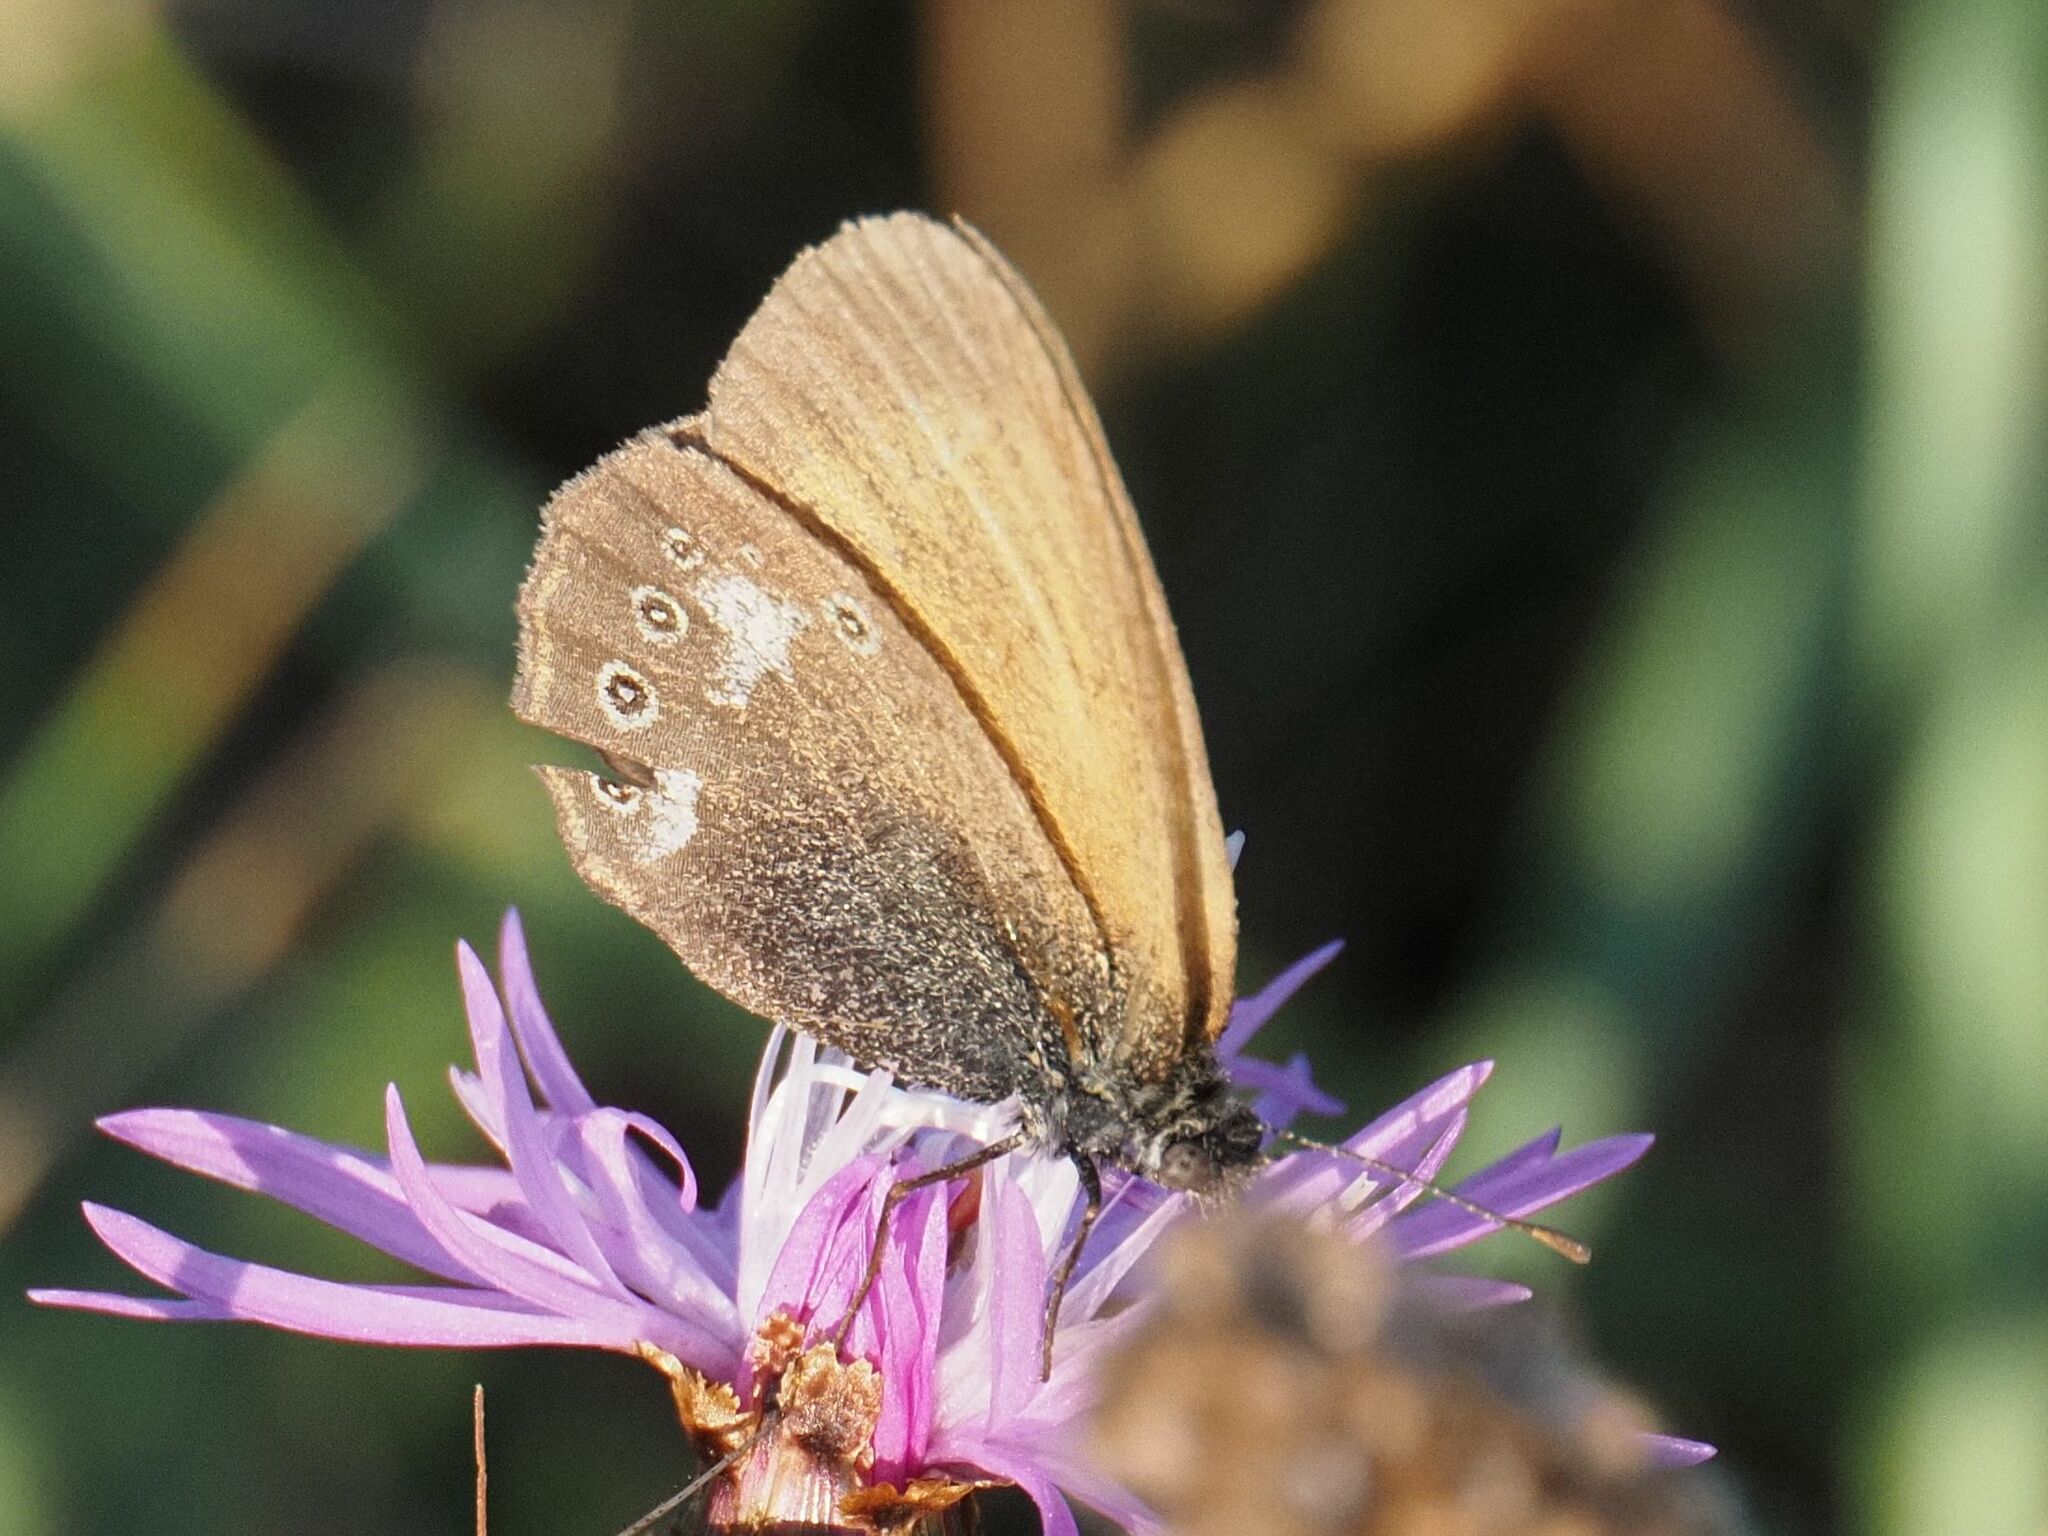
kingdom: Animalia
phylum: Arthropoda
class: Insecta
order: Lepidoptera
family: Nymphalidae
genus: Coenonympha
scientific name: Coenonympha iphis
